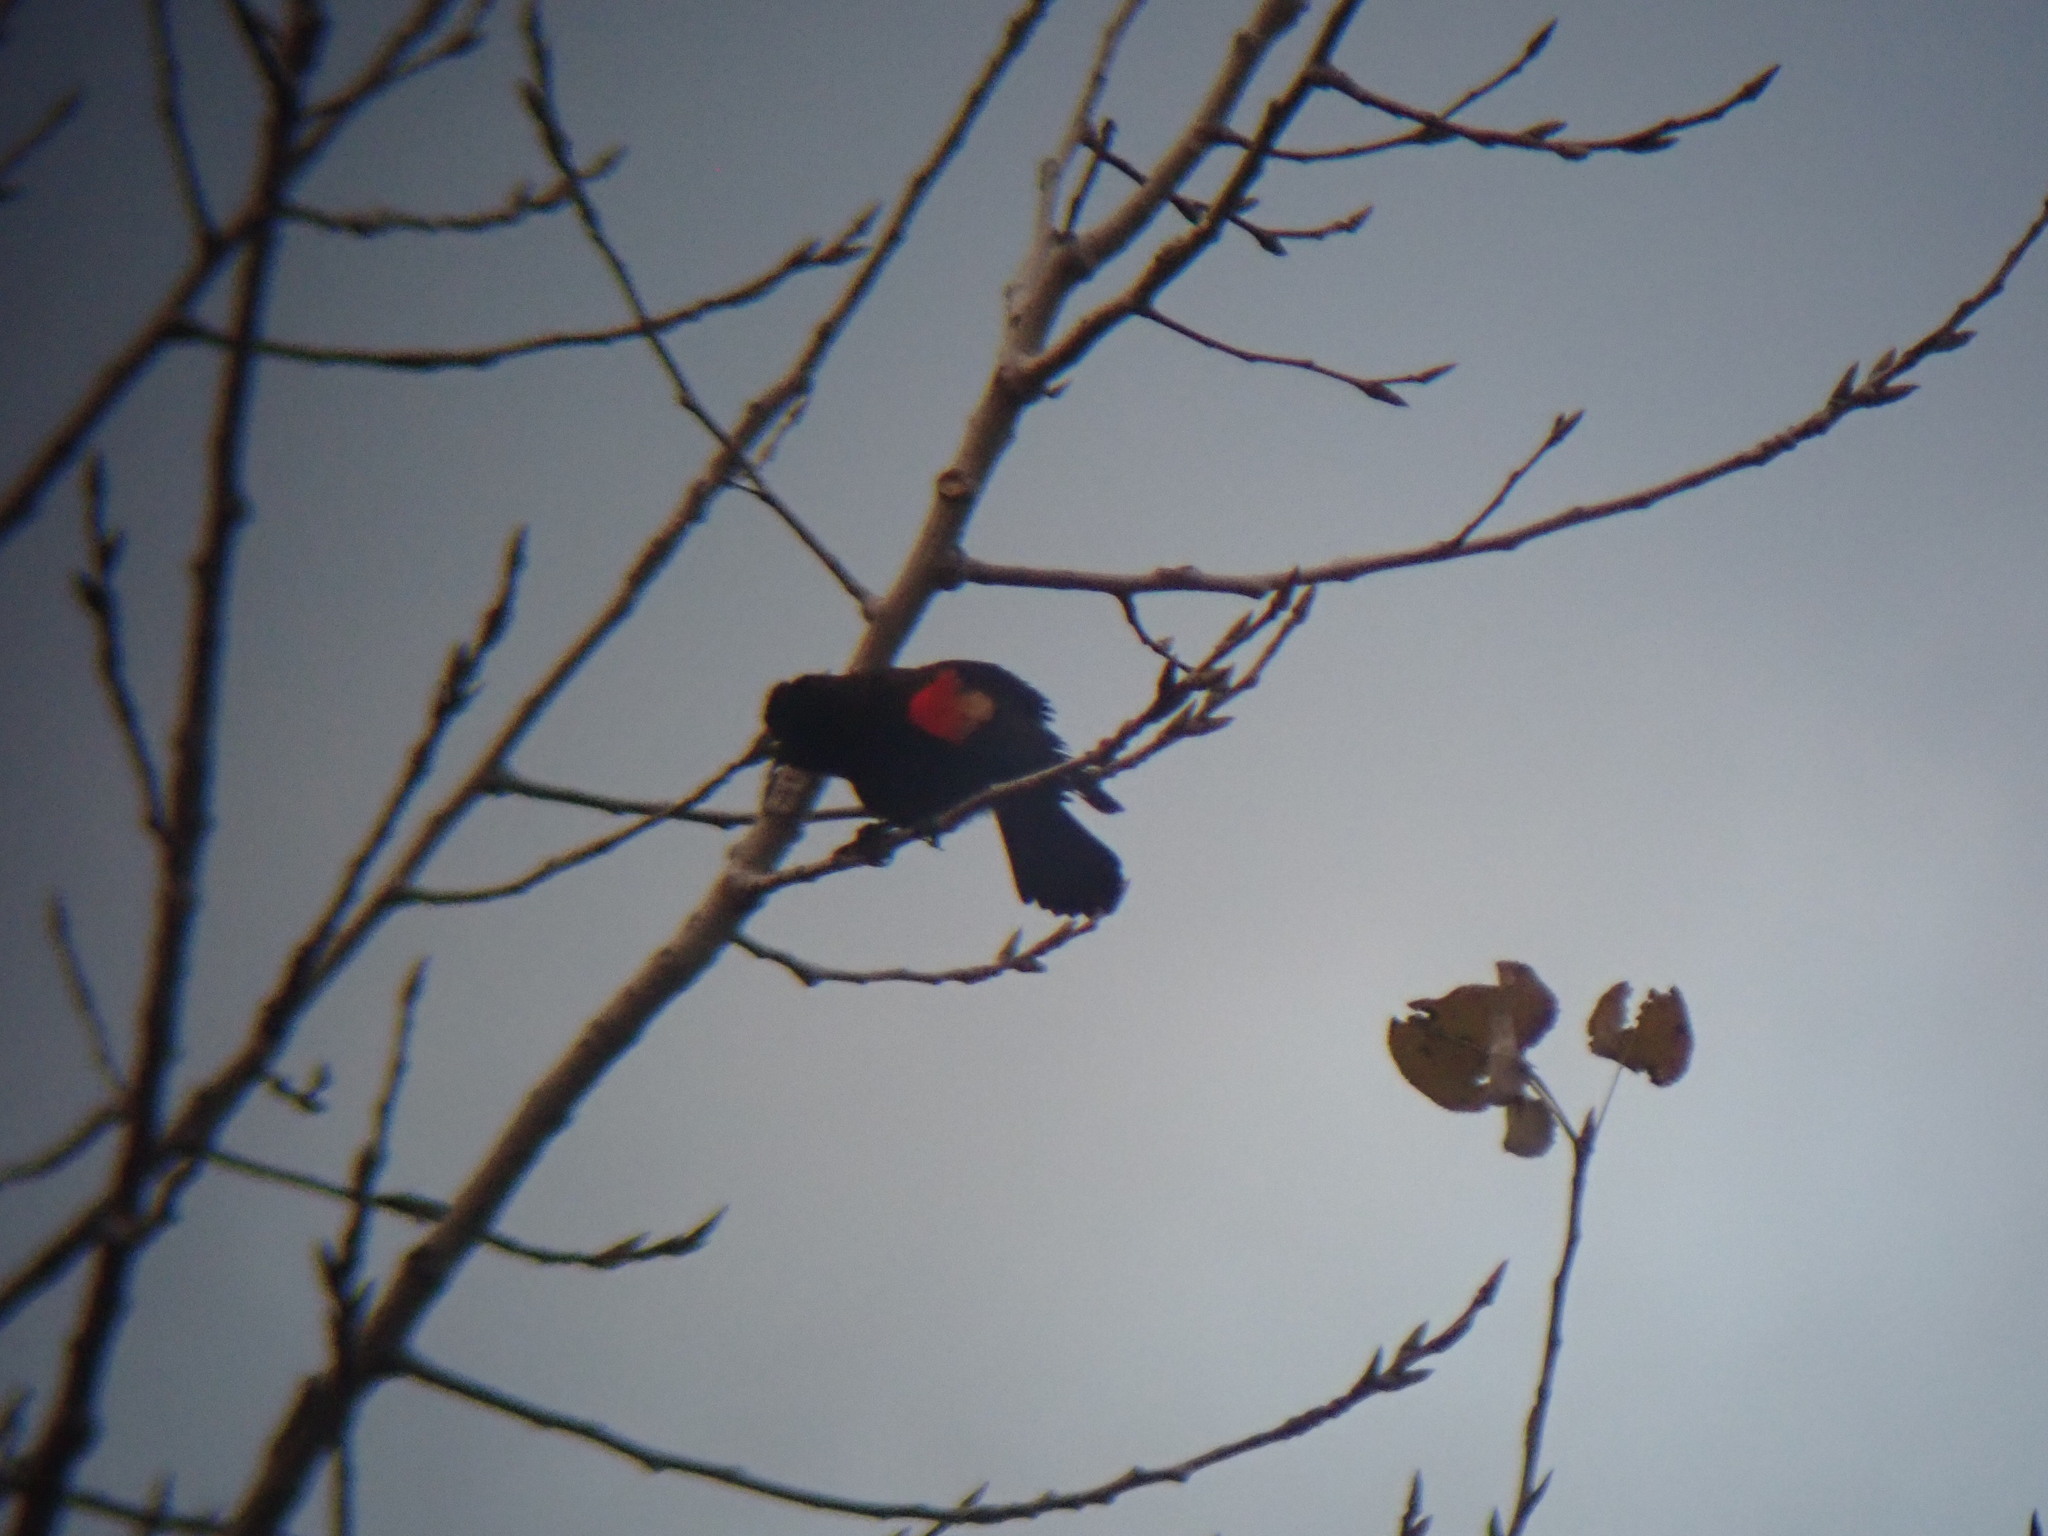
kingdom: Animalia
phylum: Chordata
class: Aves
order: Passeriformes
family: Icteridae
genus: Agelaius
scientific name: Agelaius phoeniceus
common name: Red-winged blackbird
